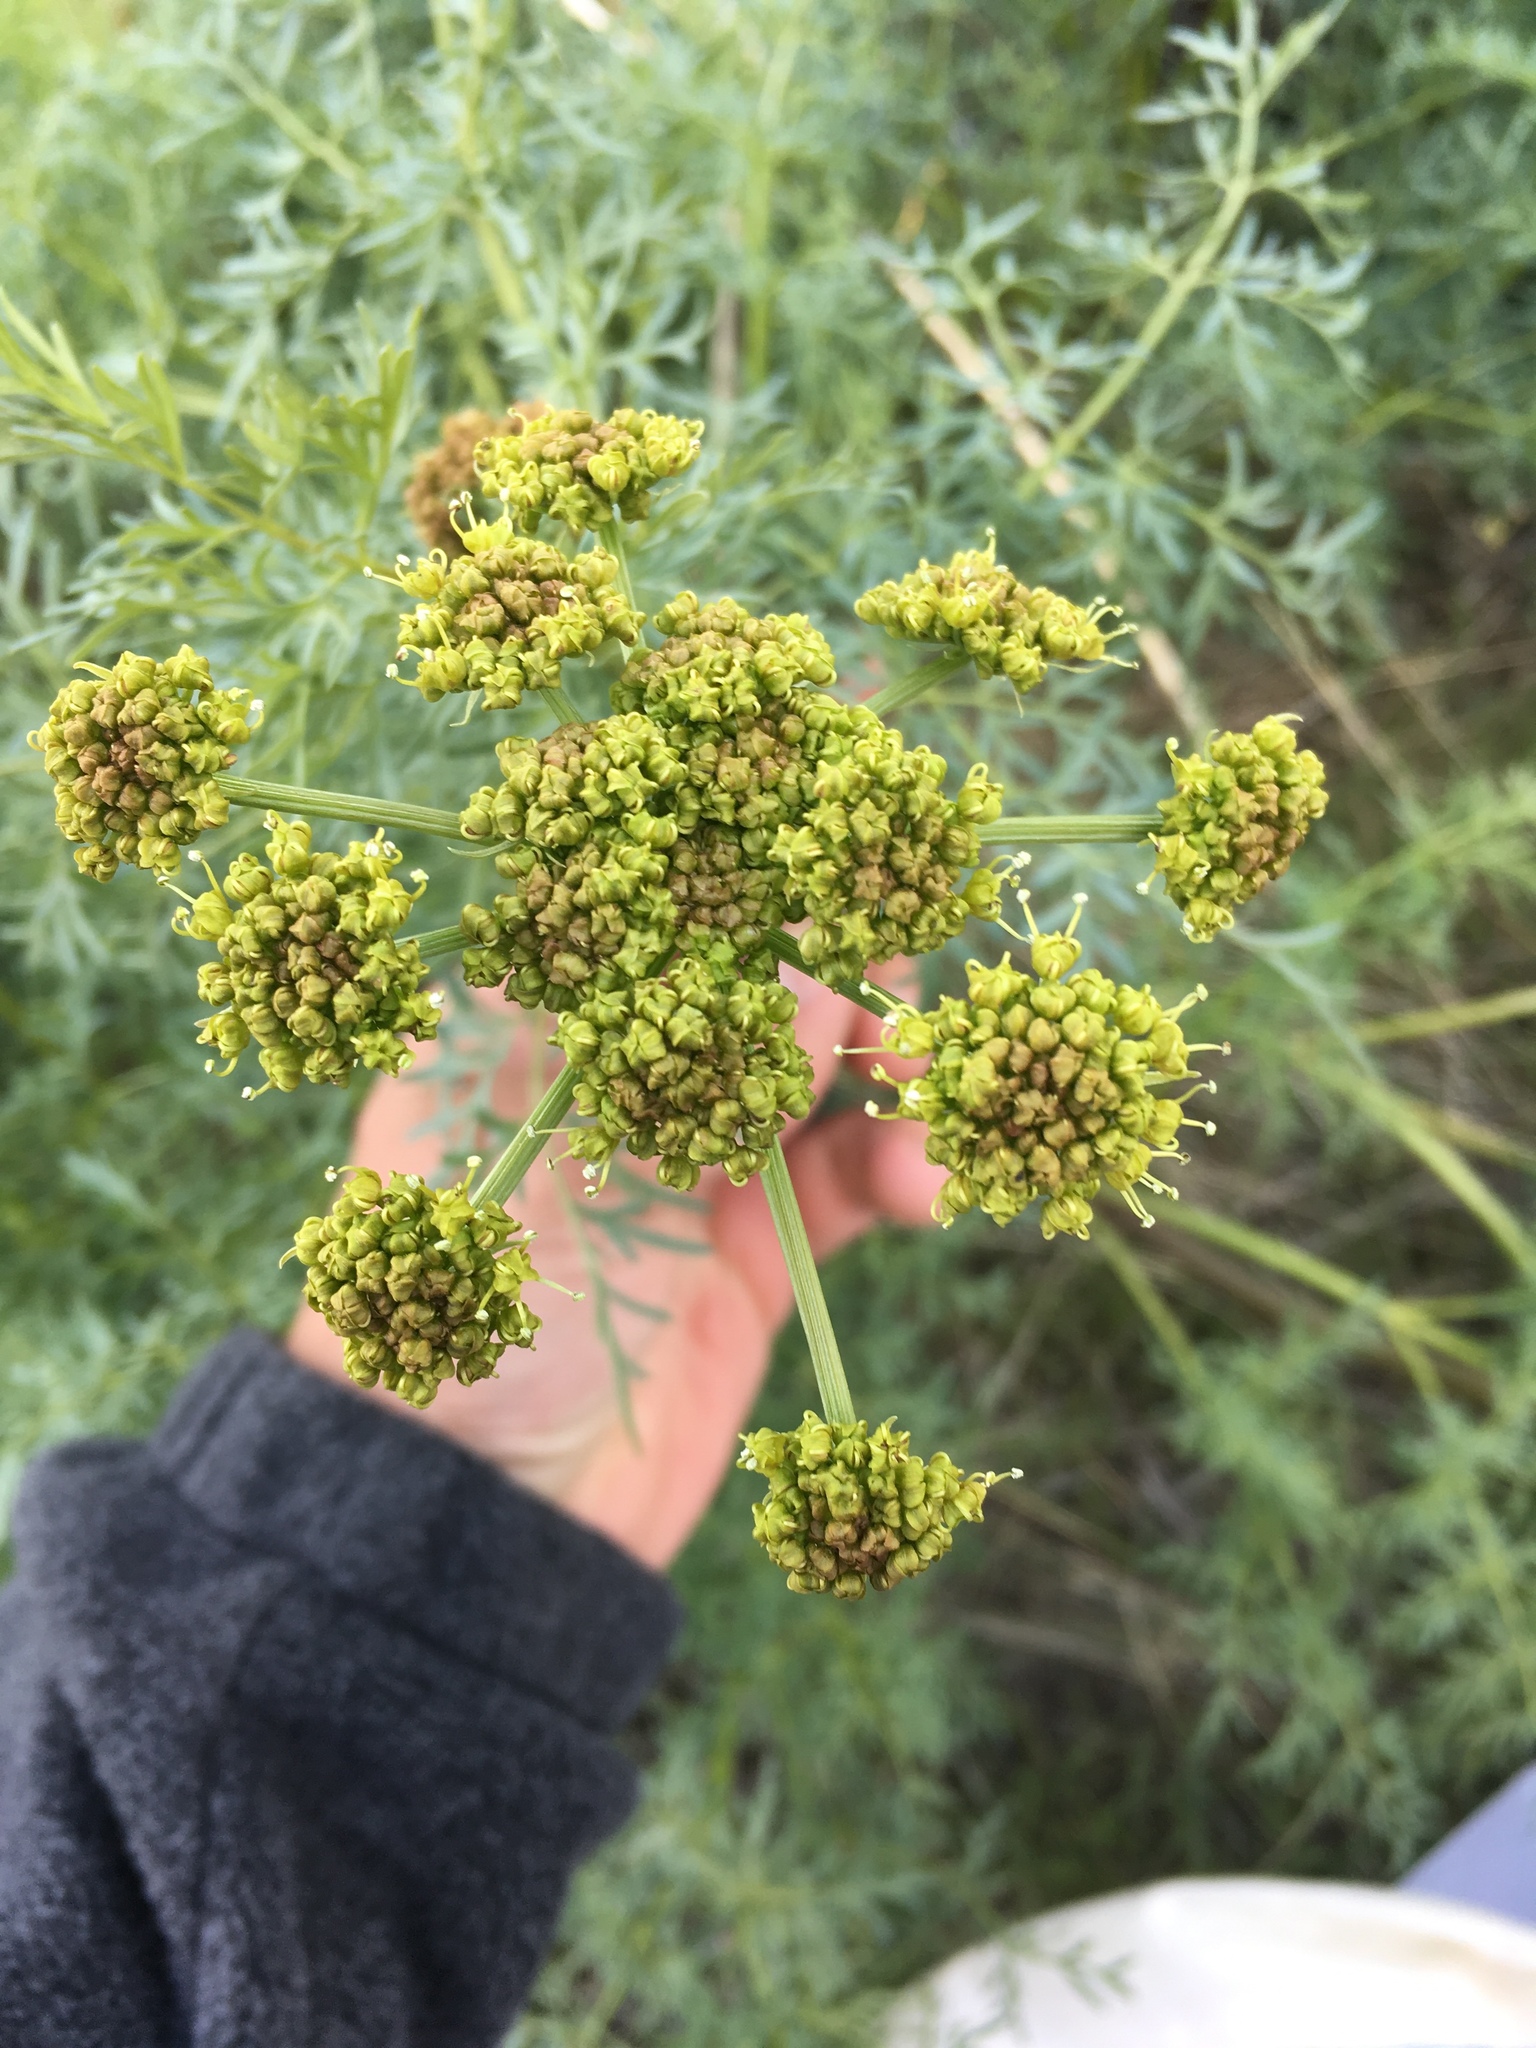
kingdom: Plantae
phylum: Tracheophyta
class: Magnoliopsida
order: Apiales
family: Apiaceae
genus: Lomatium
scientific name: Lomatium dissectum
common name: Lomatium
